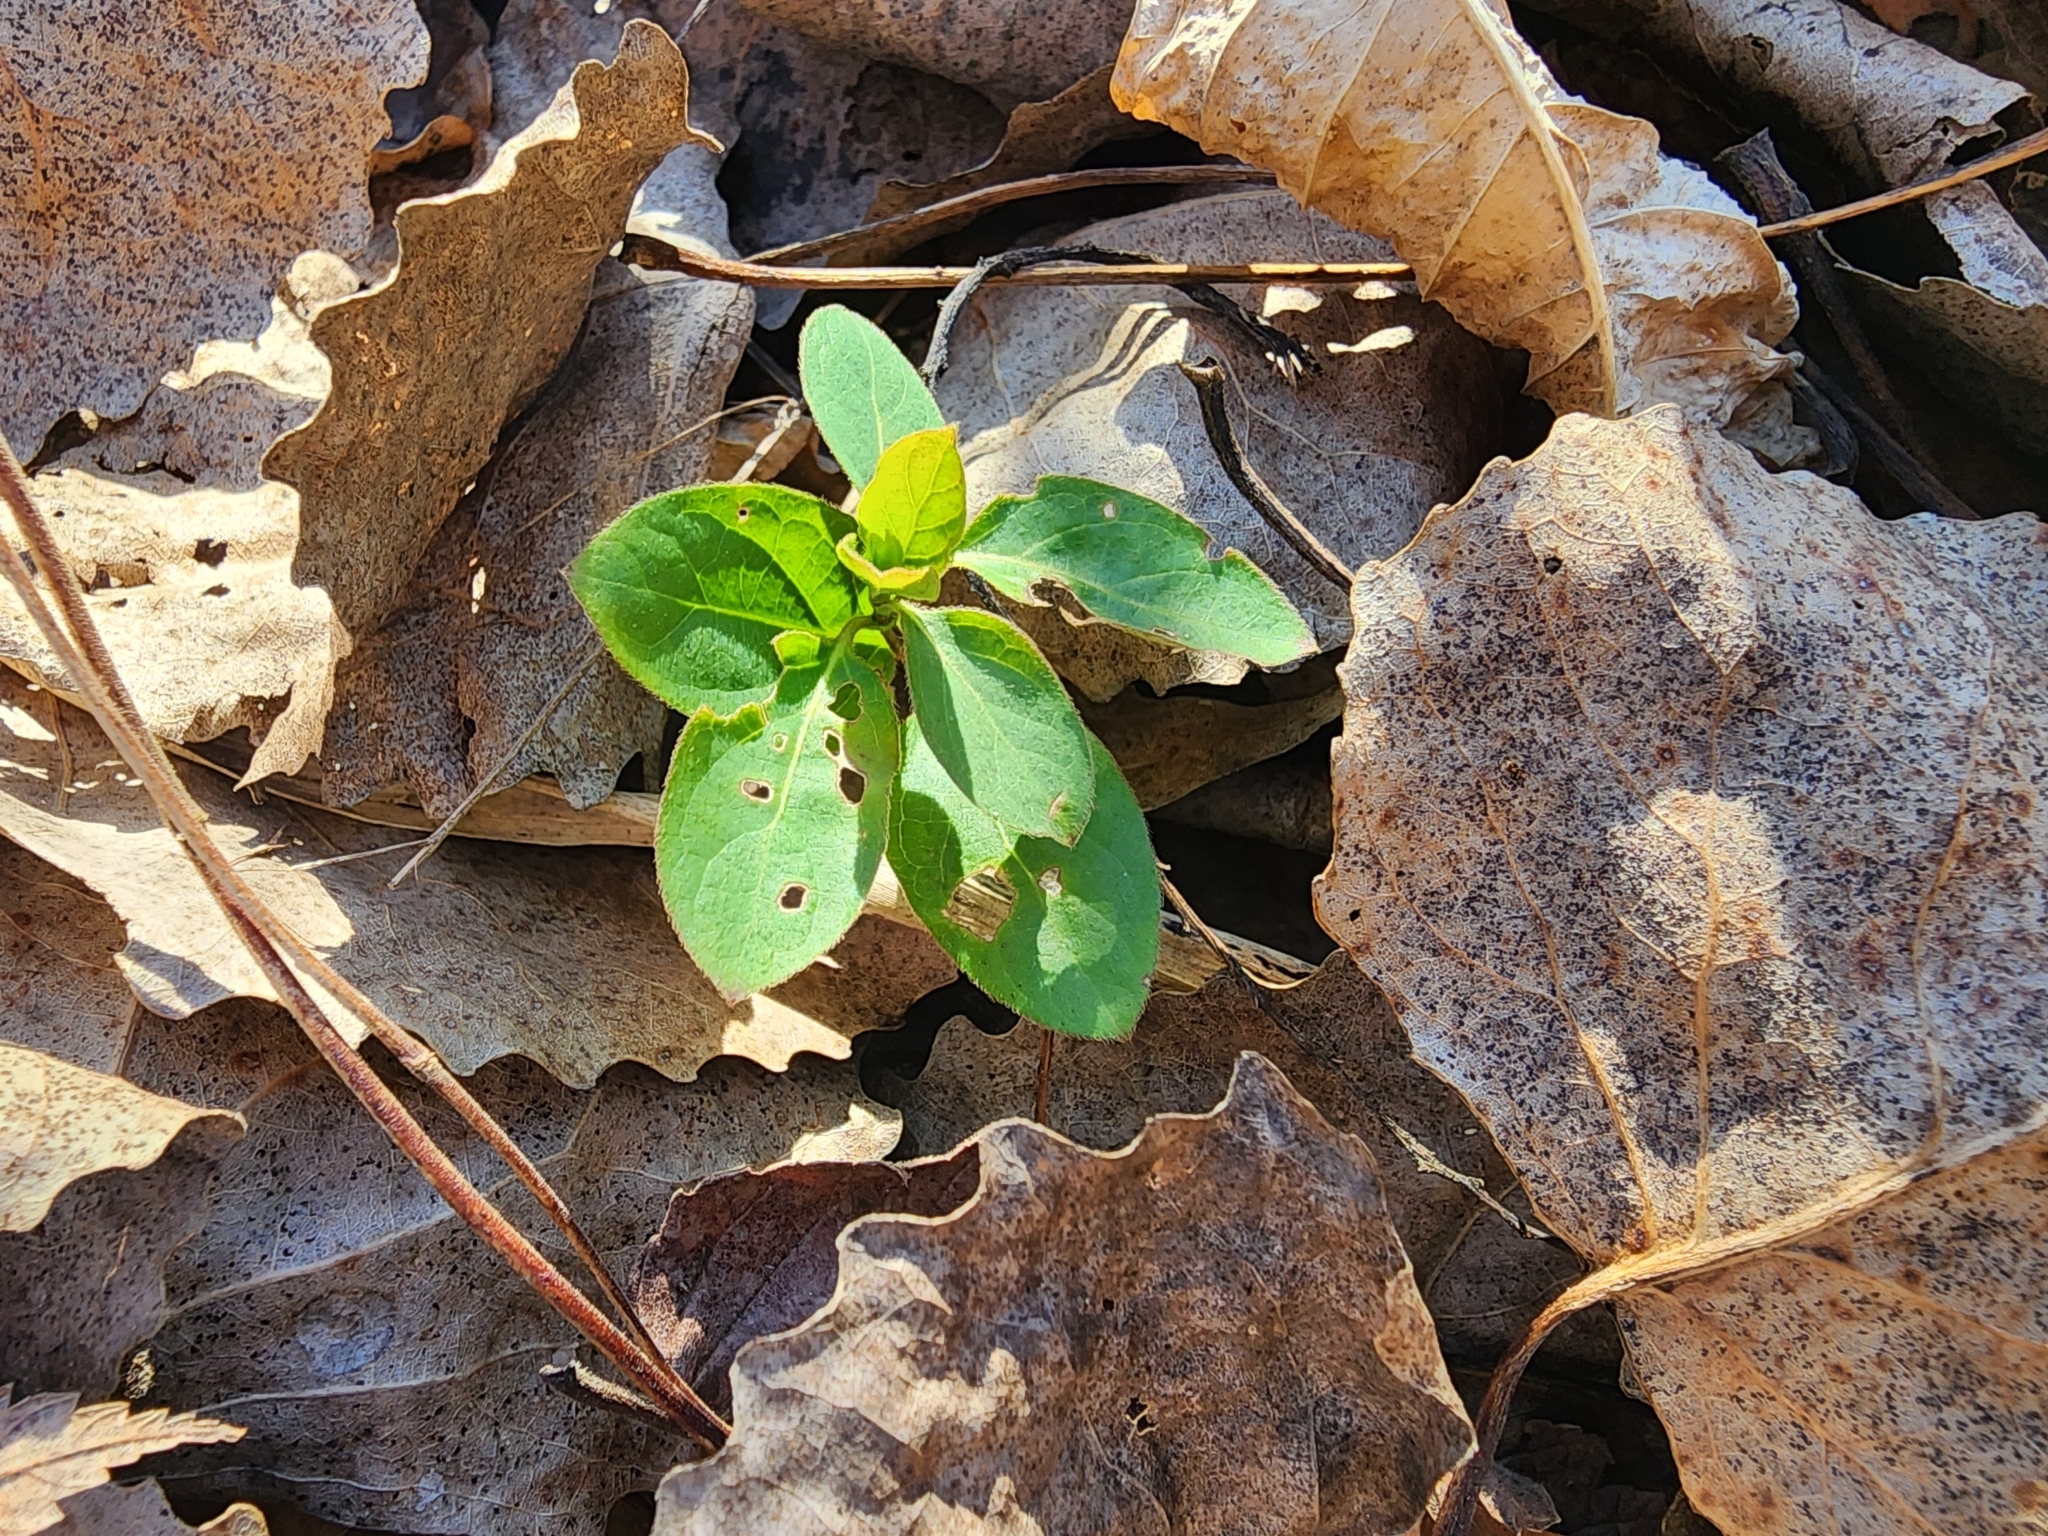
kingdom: Plantae
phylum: Tracheophyta
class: Magnoliopsida
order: Dipsacales
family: Caprifoliaceae
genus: Lonicera
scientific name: Lonicera japonica
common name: Japanese honeysuckle
